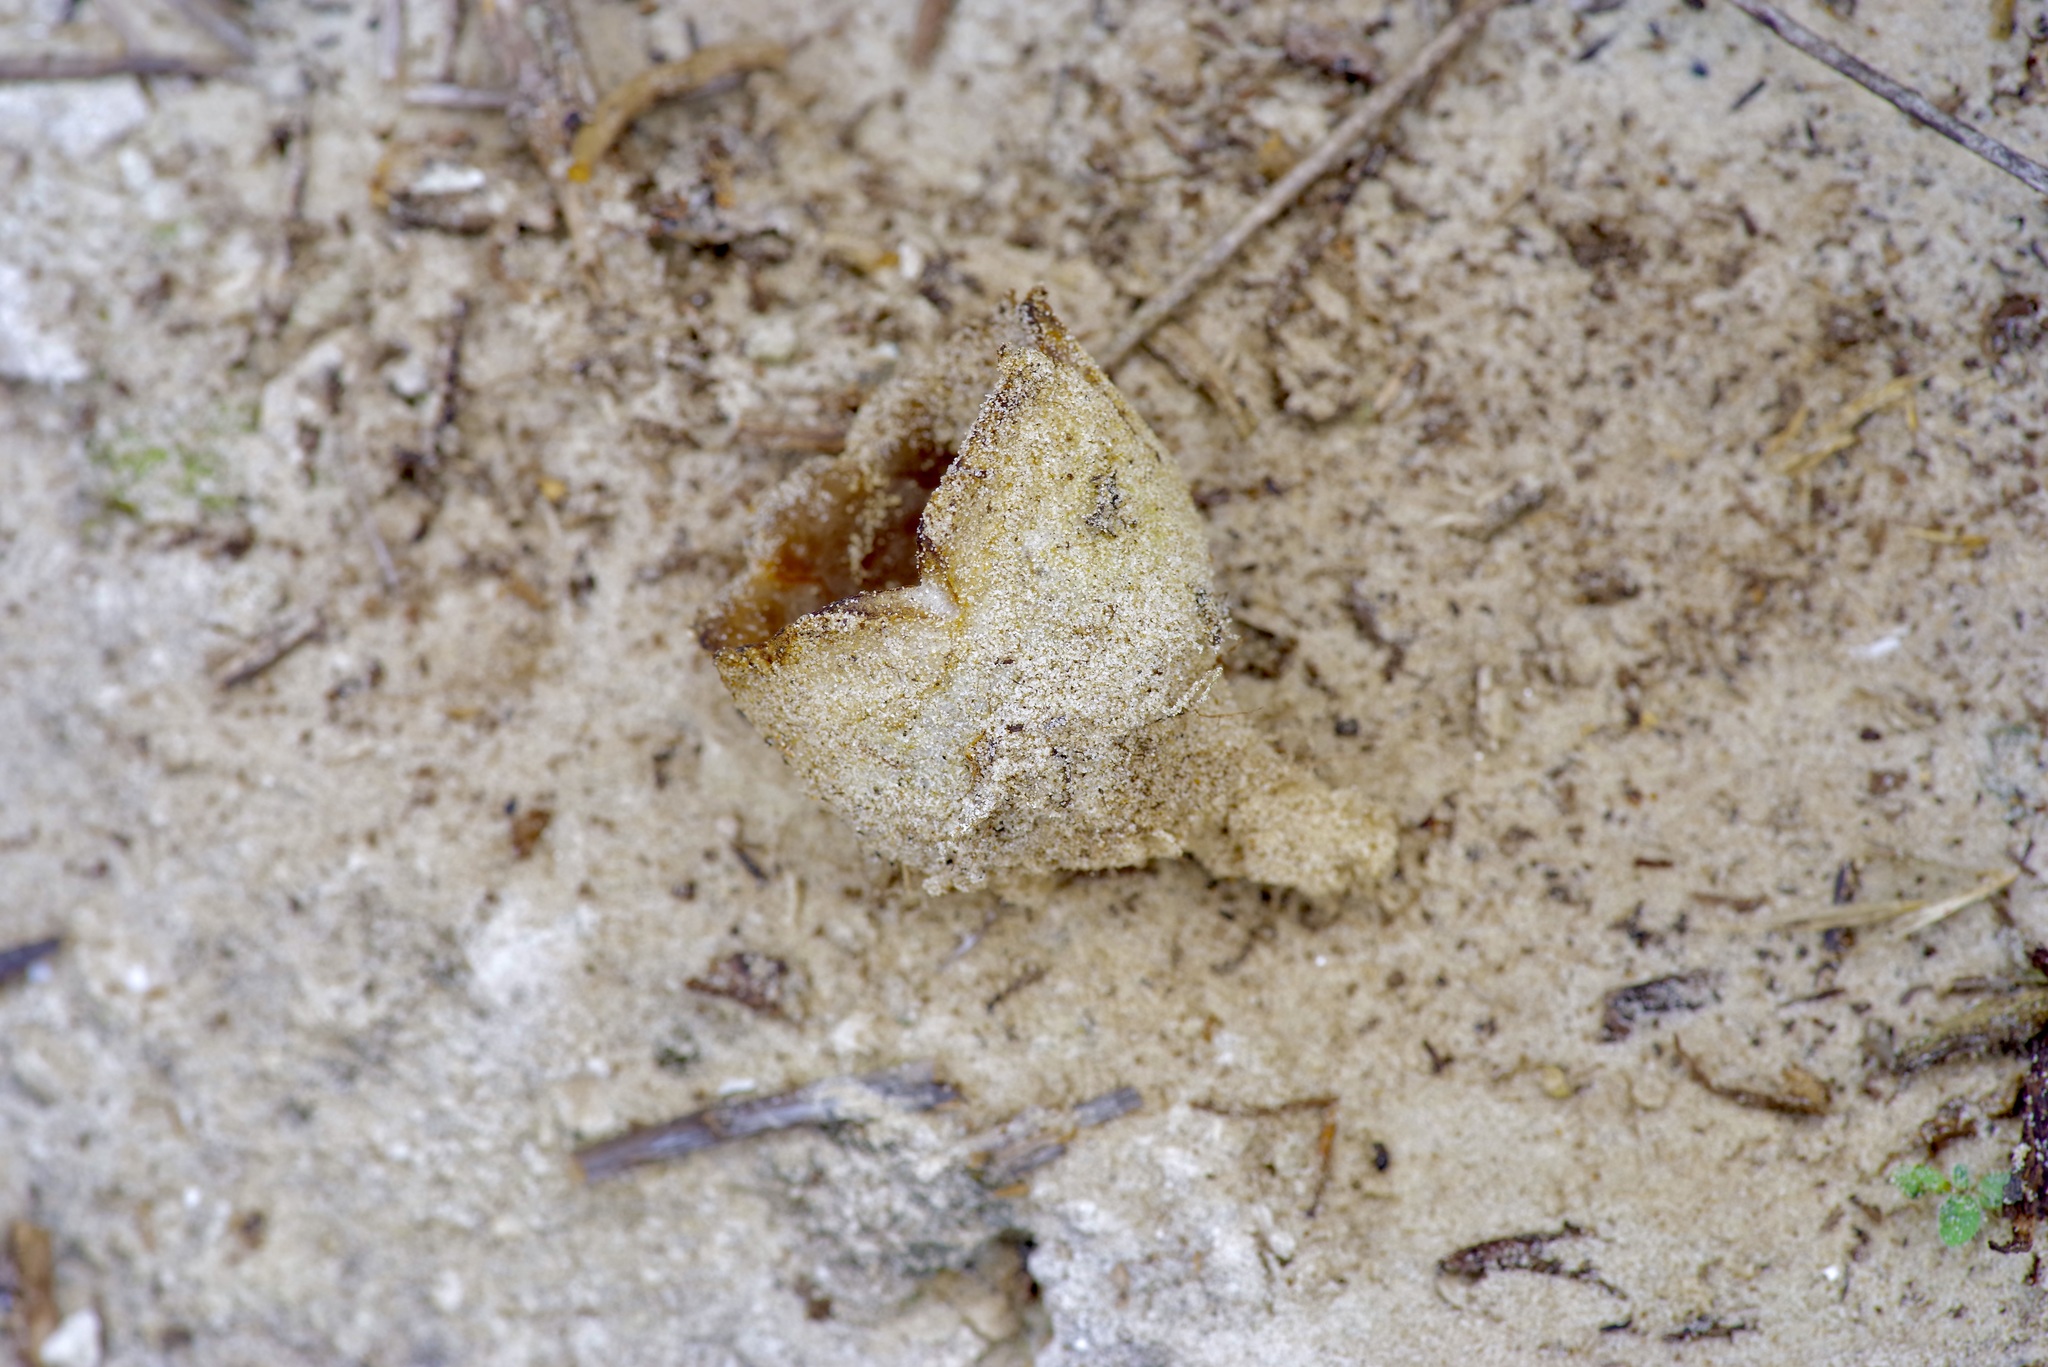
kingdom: Fungi
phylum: Ascomycota
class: Pezizomycetes
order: Pezizales
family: Pezizaceae
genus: Peziza
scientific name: Peziza ammophila
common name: Dune cup
